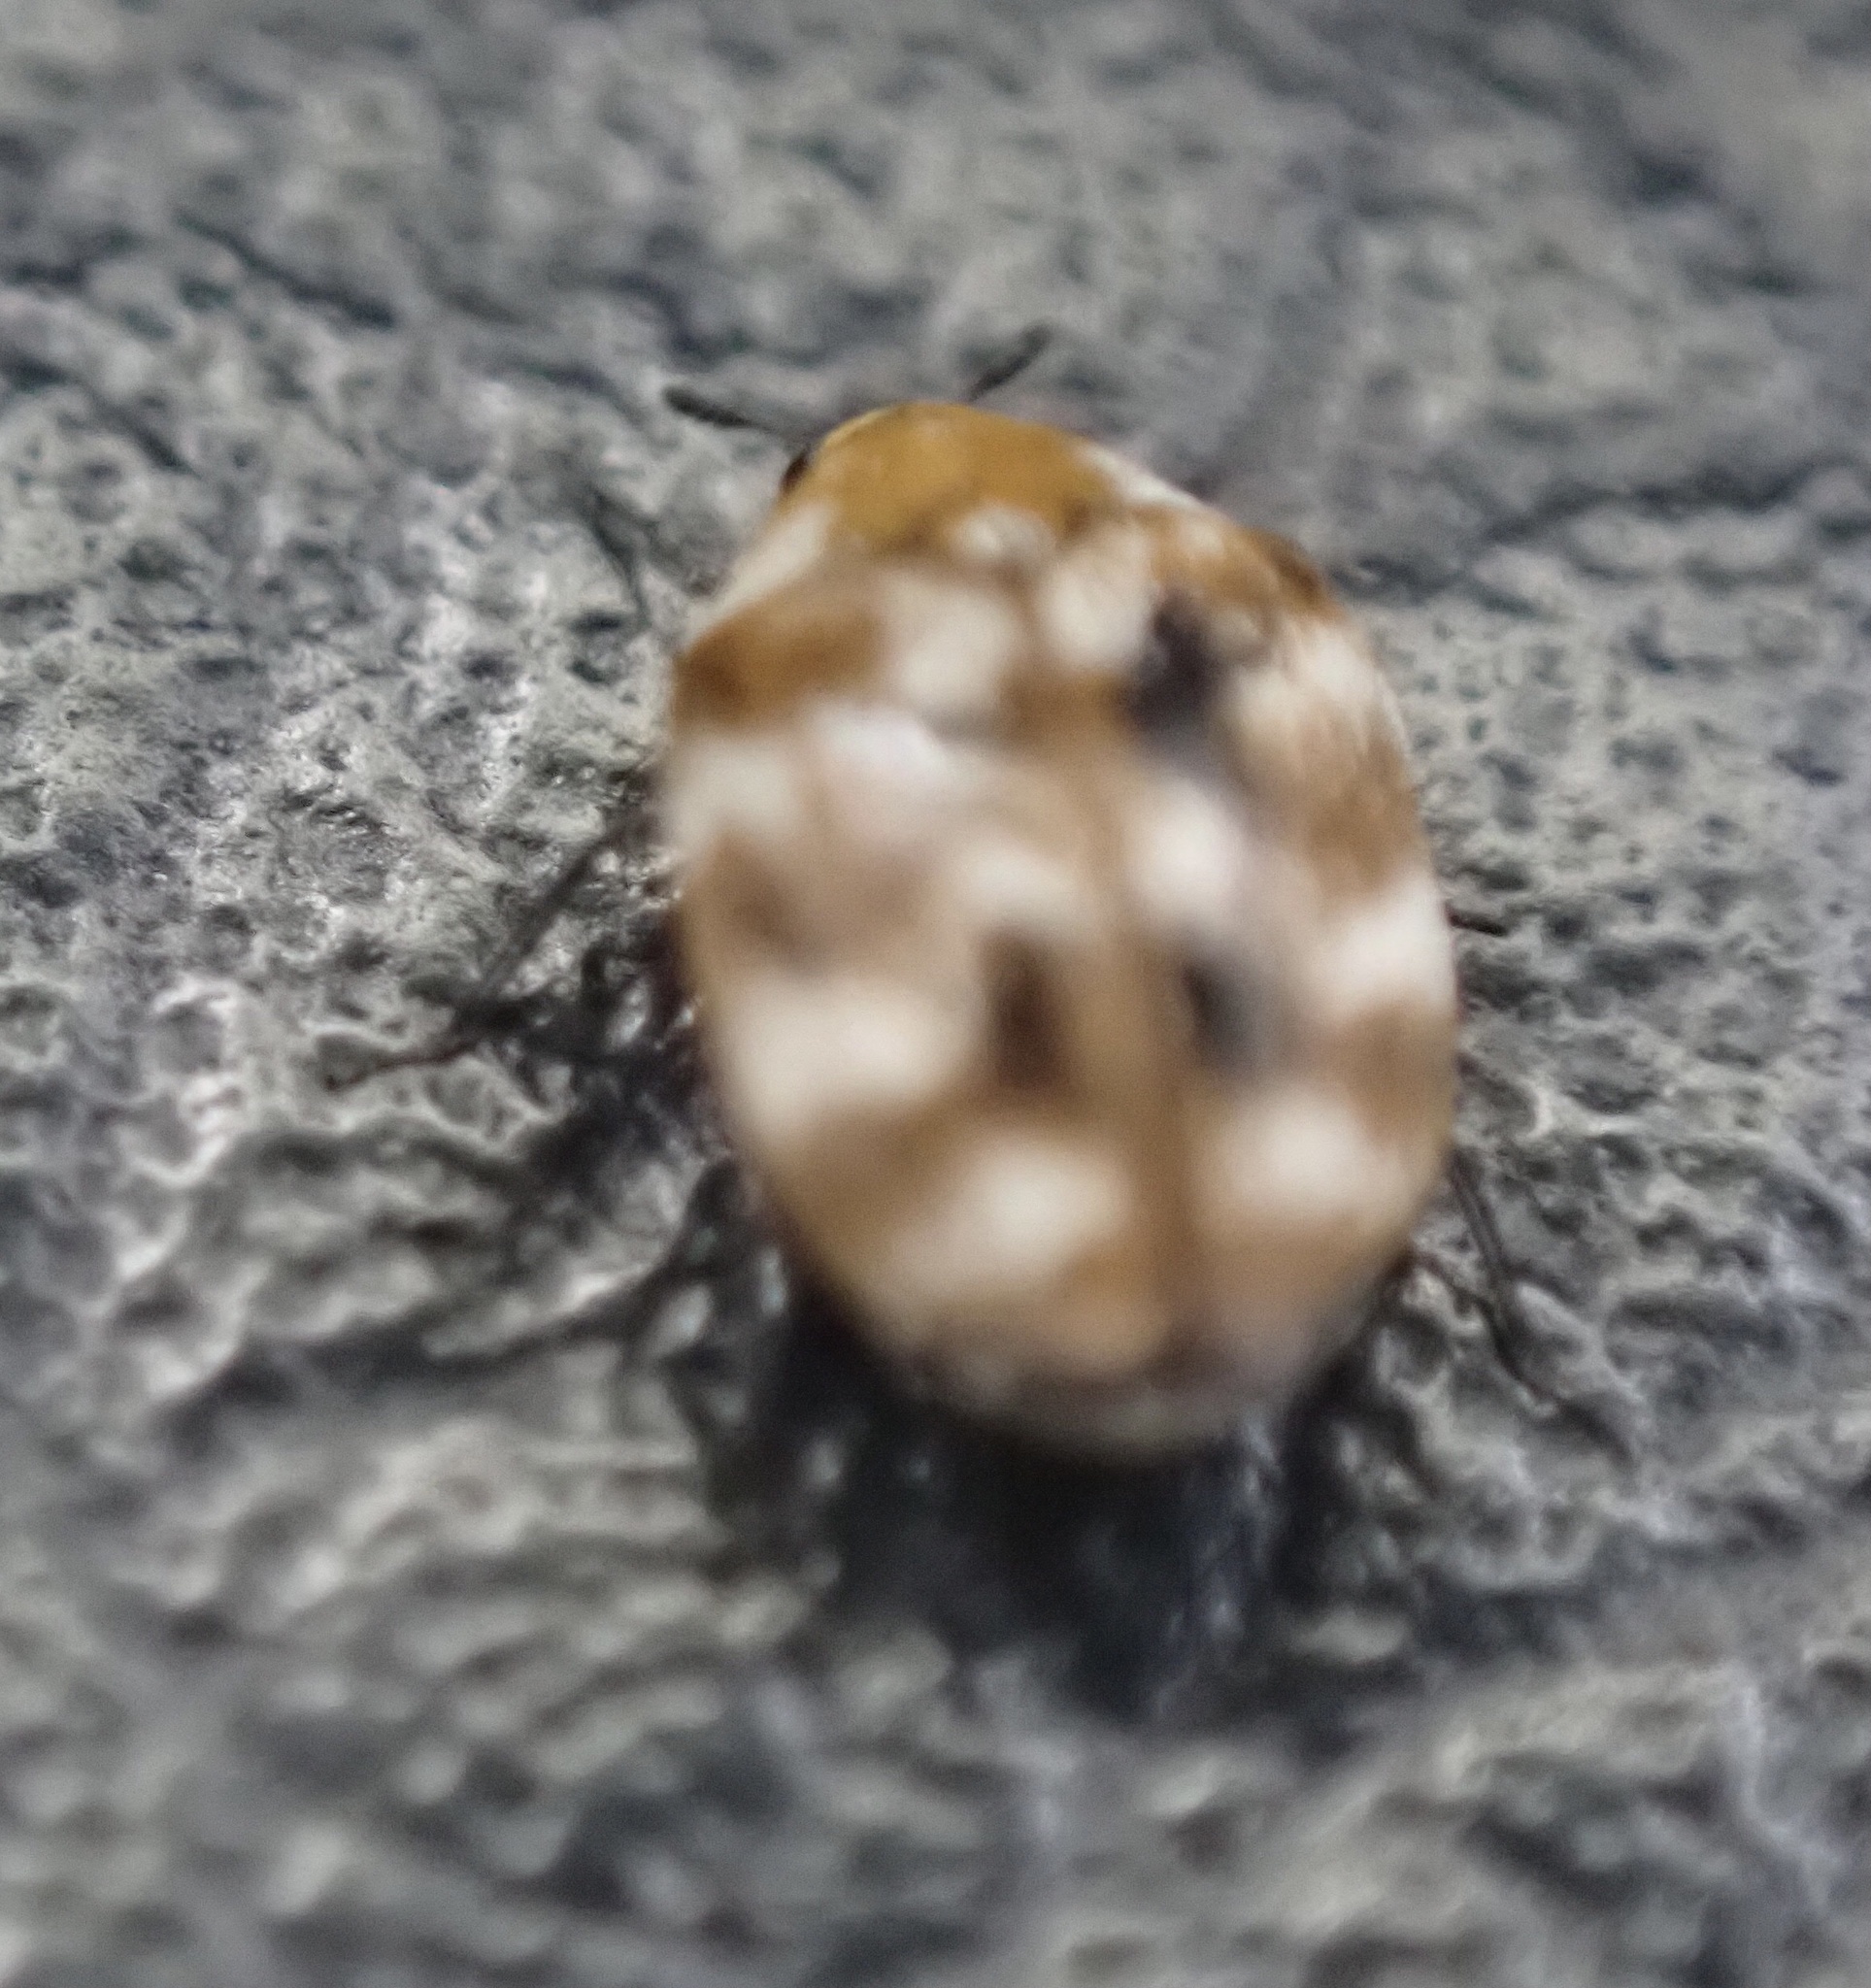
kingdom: Animalia
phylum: Arthropoda
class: Insecta
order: Coleoptera
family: Dermestidae
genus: Anthrenus
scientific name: Anthrenus verbasci
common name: Varied carpet beetle
